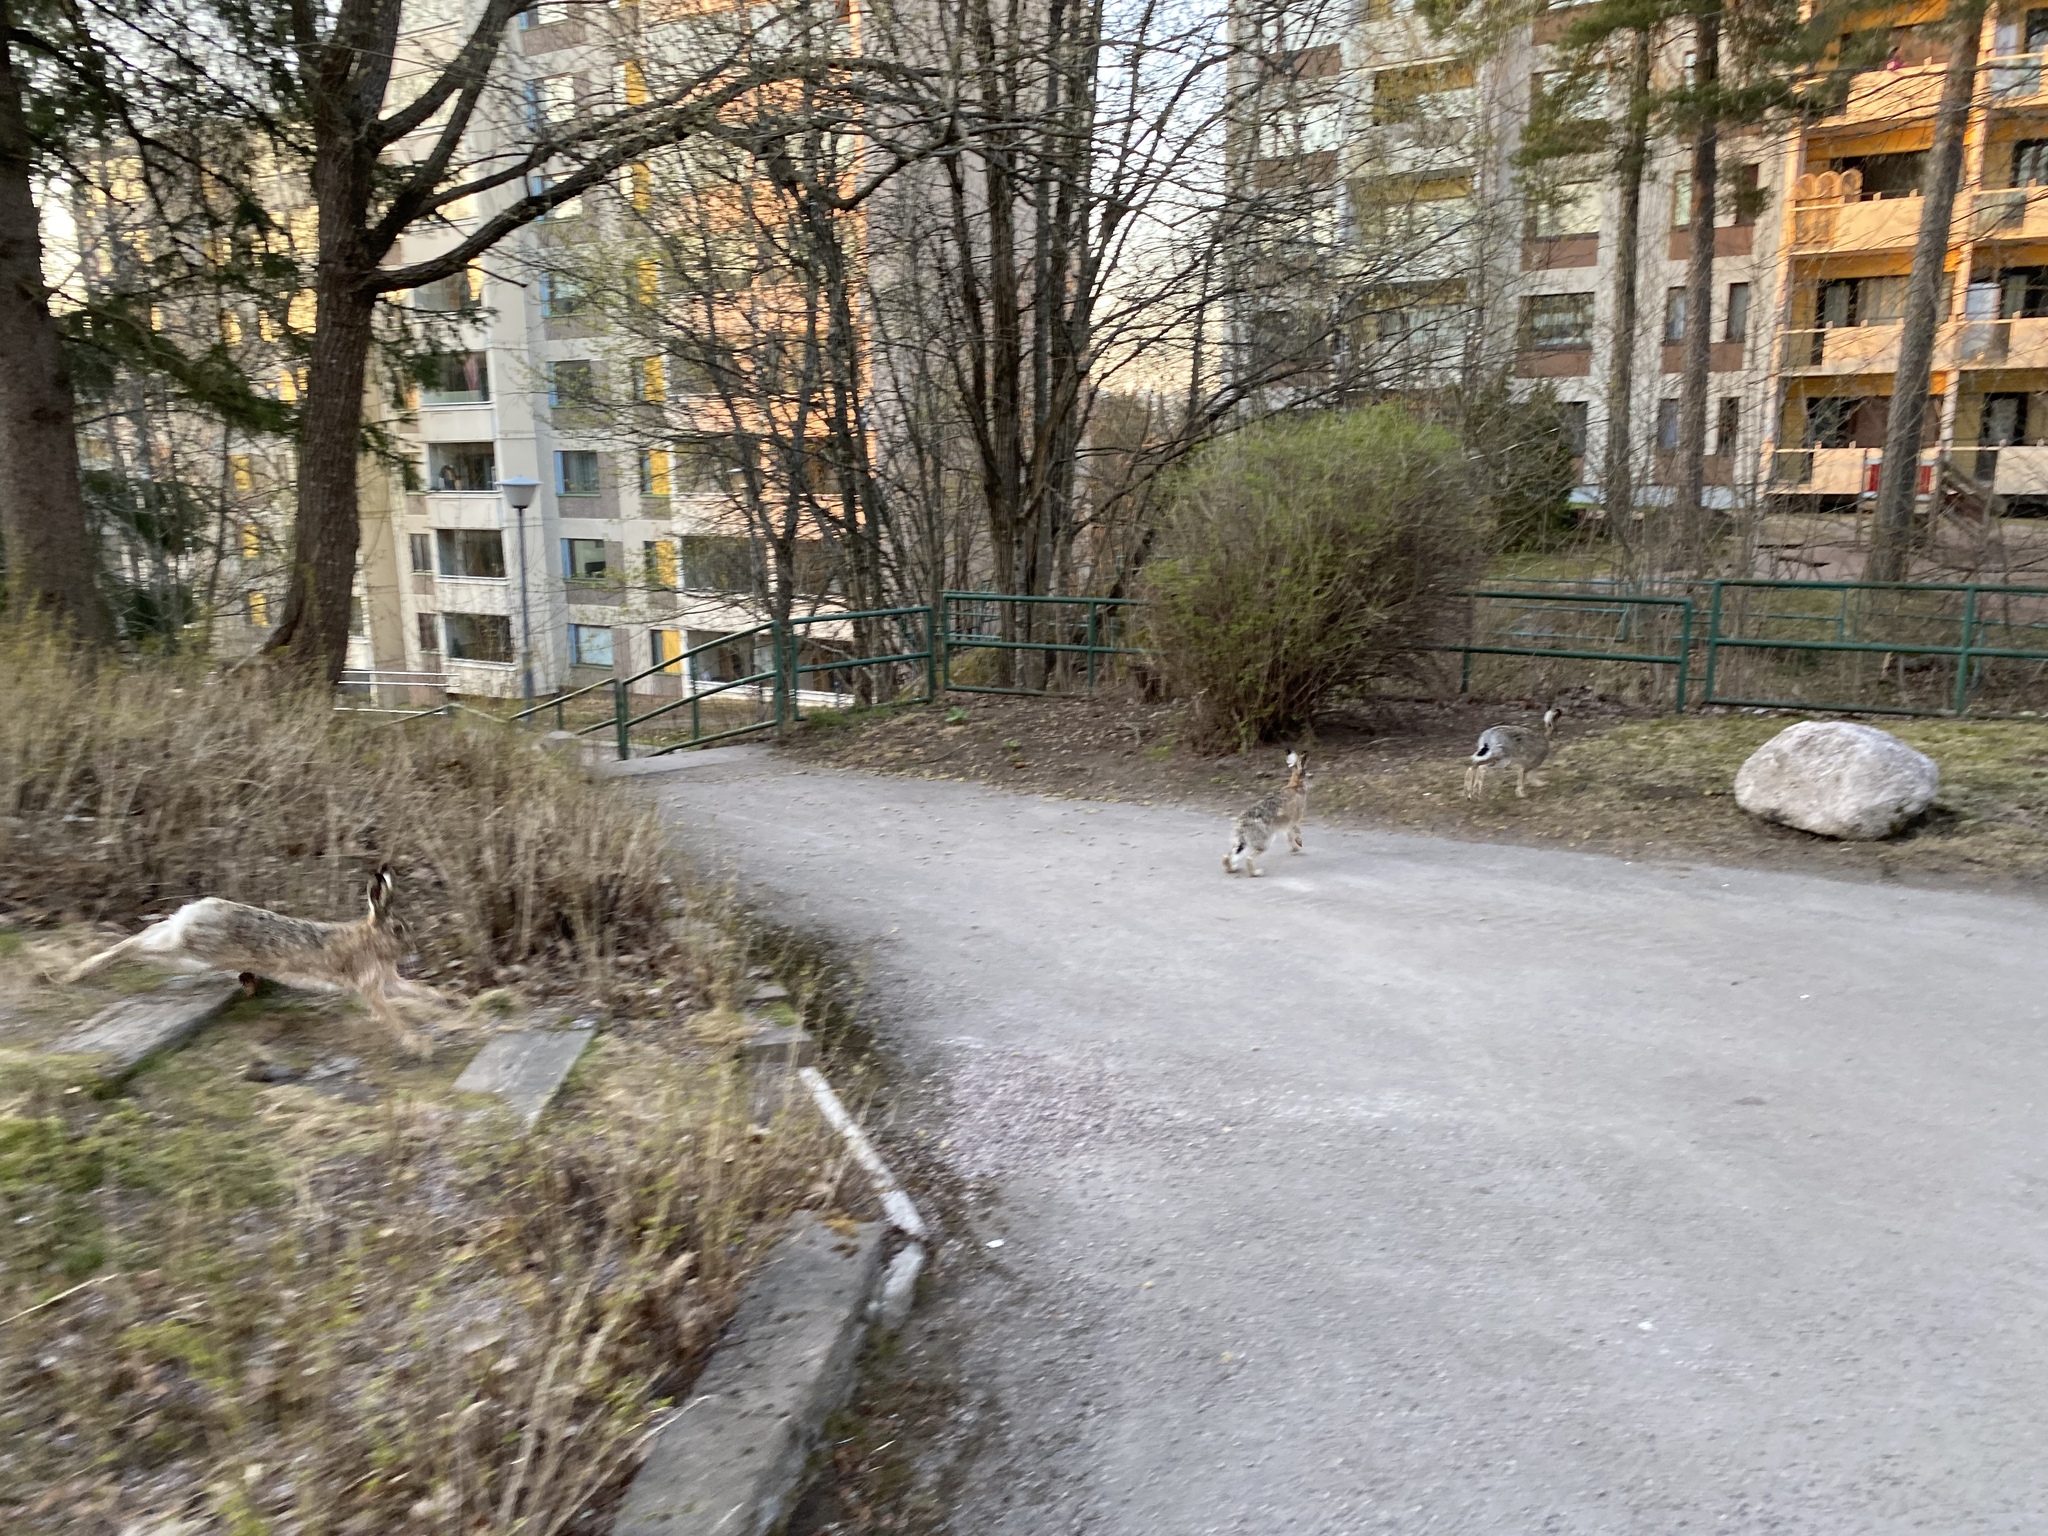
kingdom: Animalia
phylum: Chordata
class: Mammalia
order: Lagomorpha
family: Leporidae
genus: Lepus
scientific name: Lepus europaeus
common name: European hare
